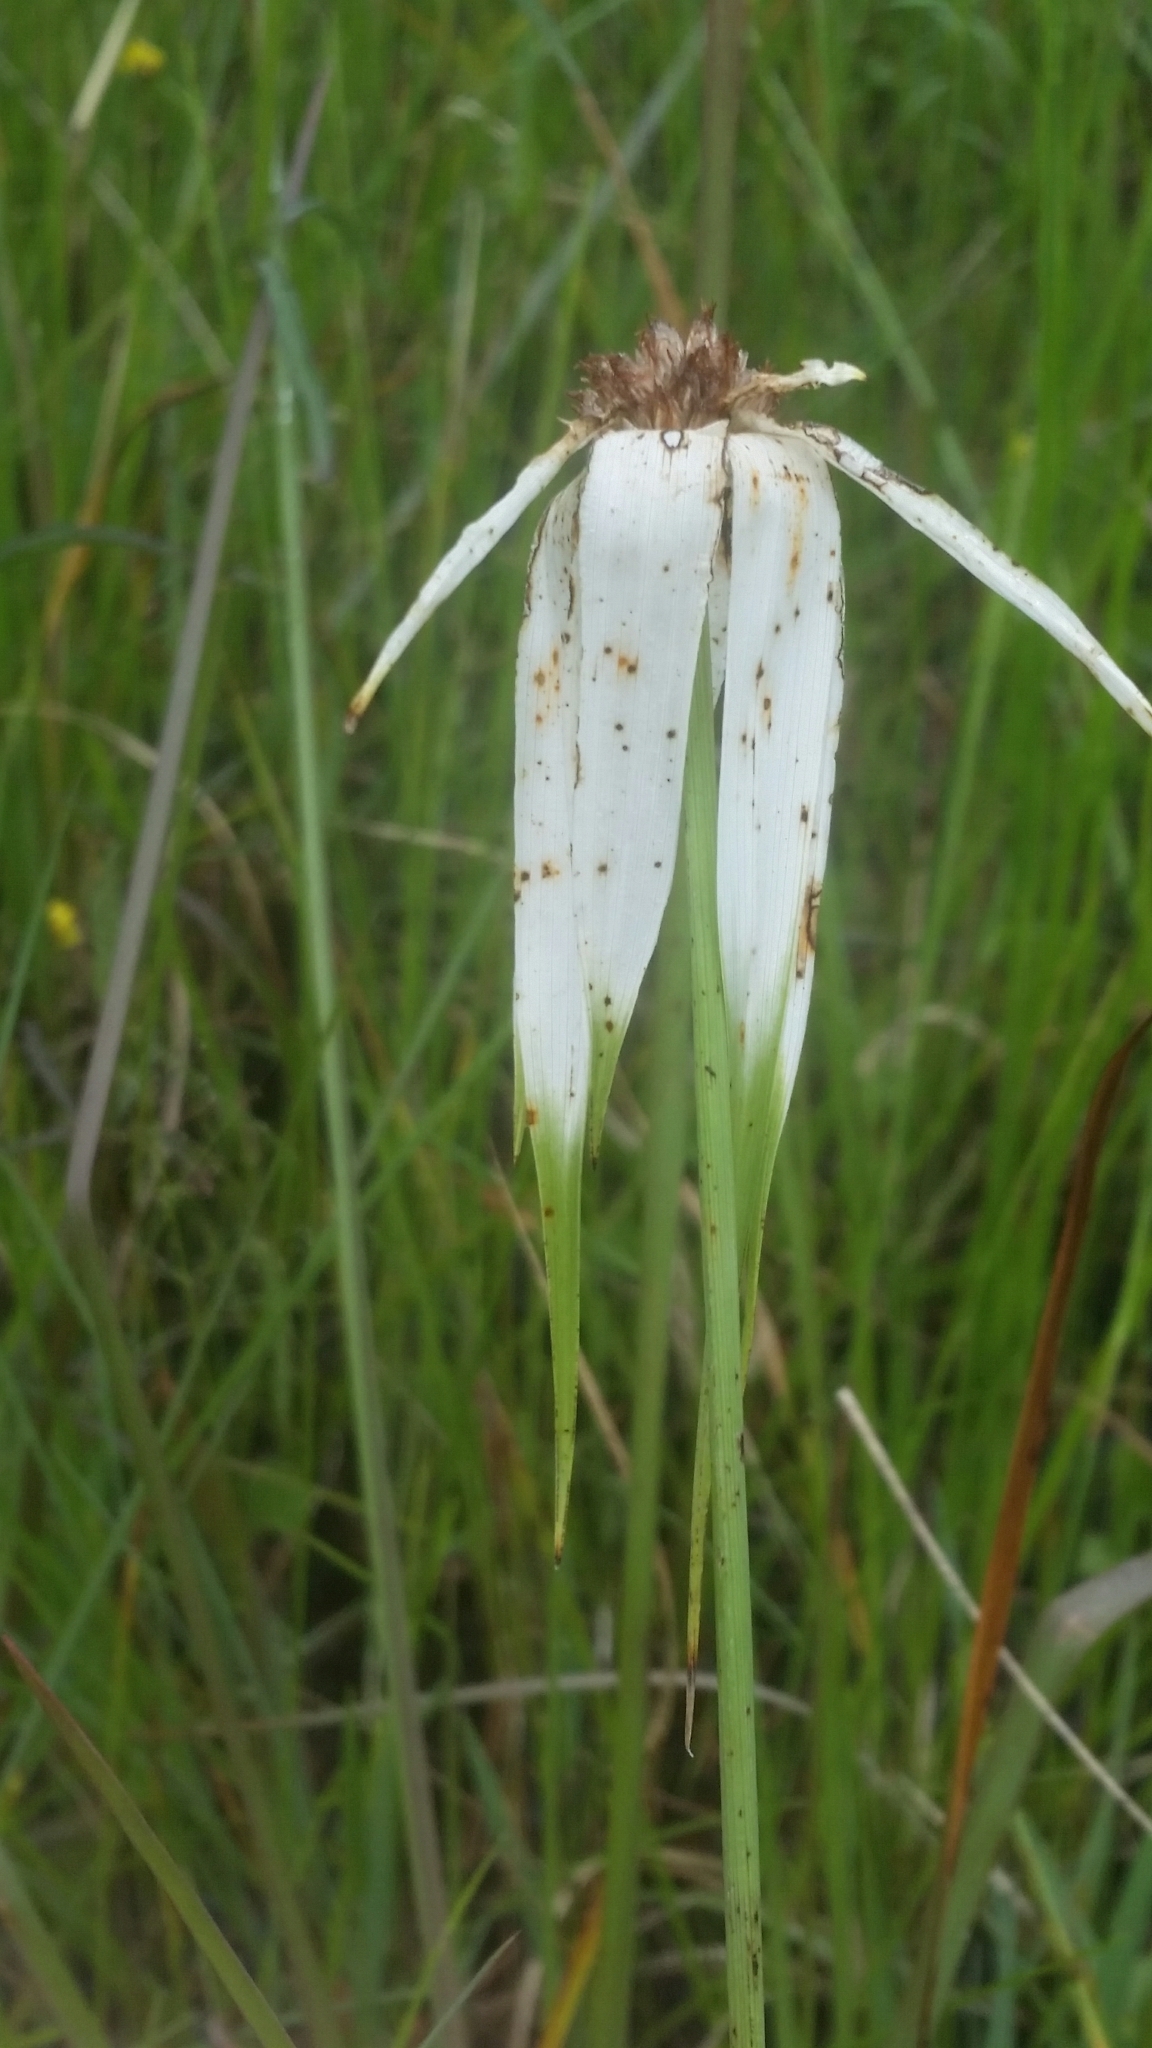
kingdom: Plantae
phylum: Tracheophyta
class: Liliopsida
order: Poales
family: Cyperaceae
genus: Rhynchospora
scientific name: Rhynchospora latifolia
